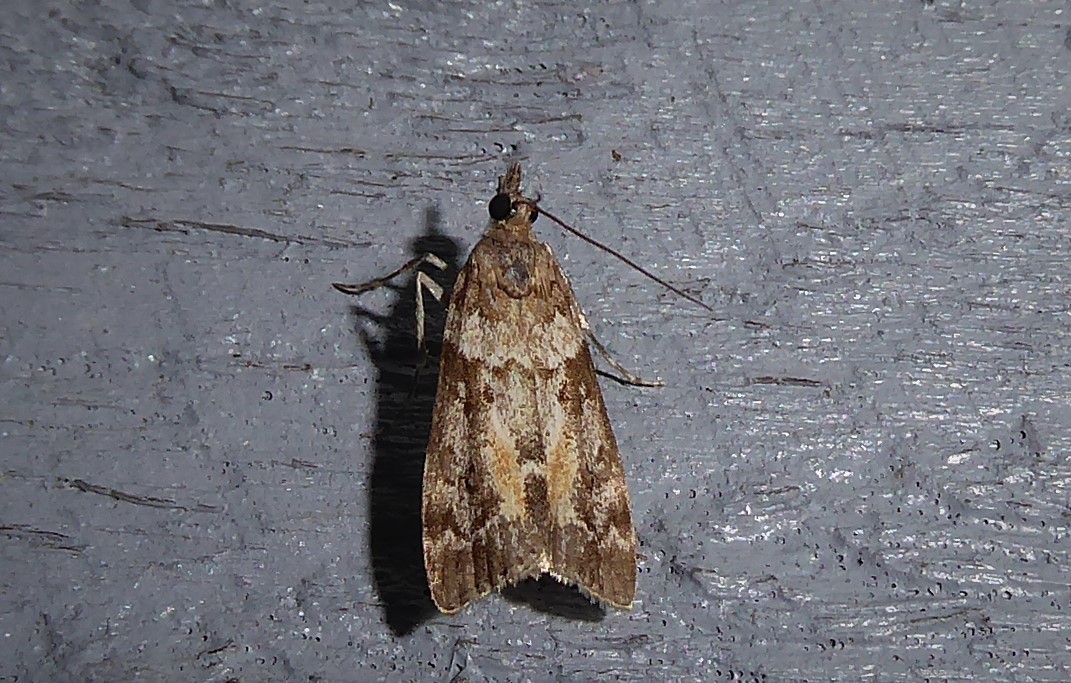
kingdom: Animalia
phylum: Arthropoda
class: Insecta
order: Lepidoptera
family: Crambidae
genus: Eudonia
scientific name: Eudonia submarginalis
